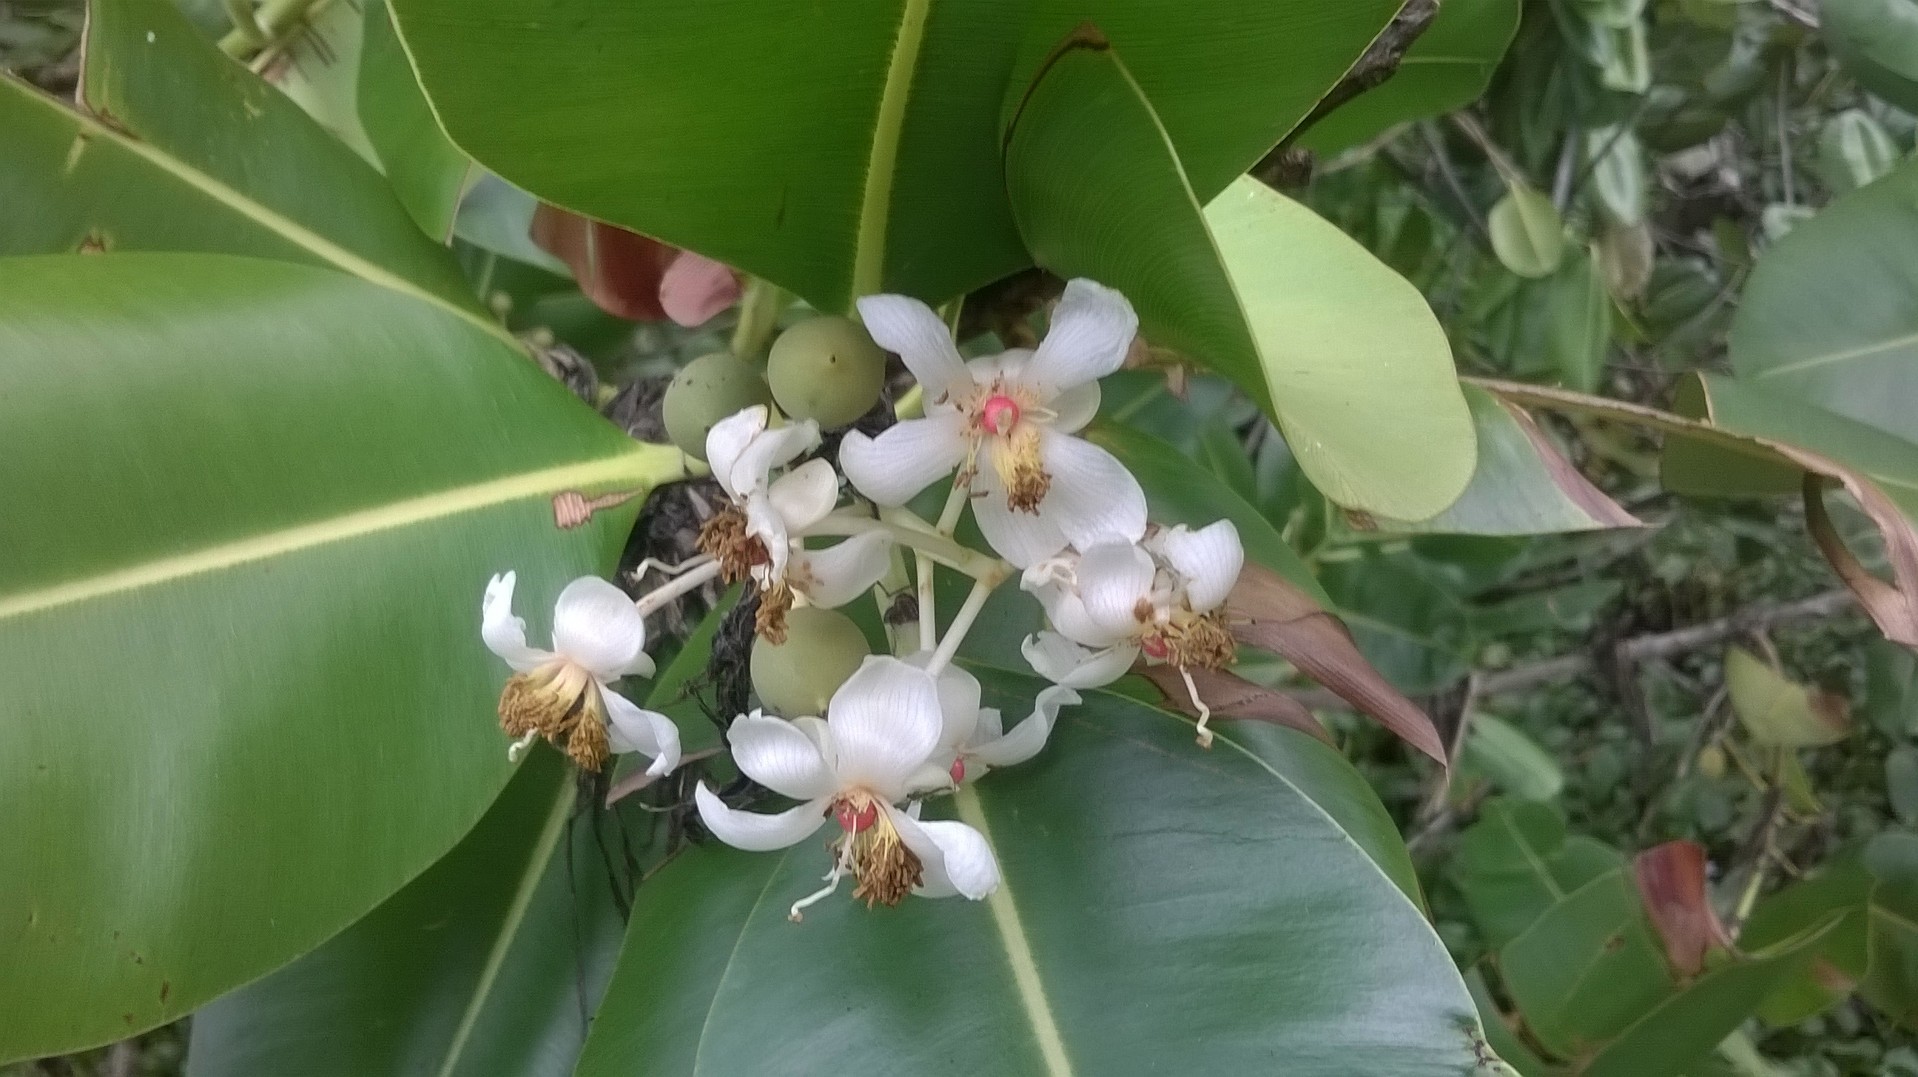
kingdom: Plantae
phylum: Tracheophyta
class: Magnoliopsida
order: Malpighiales
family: Calophyllaceae
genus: Calophyllum
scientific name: Calophyllum inophyllum
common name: Alexandrian laurel
